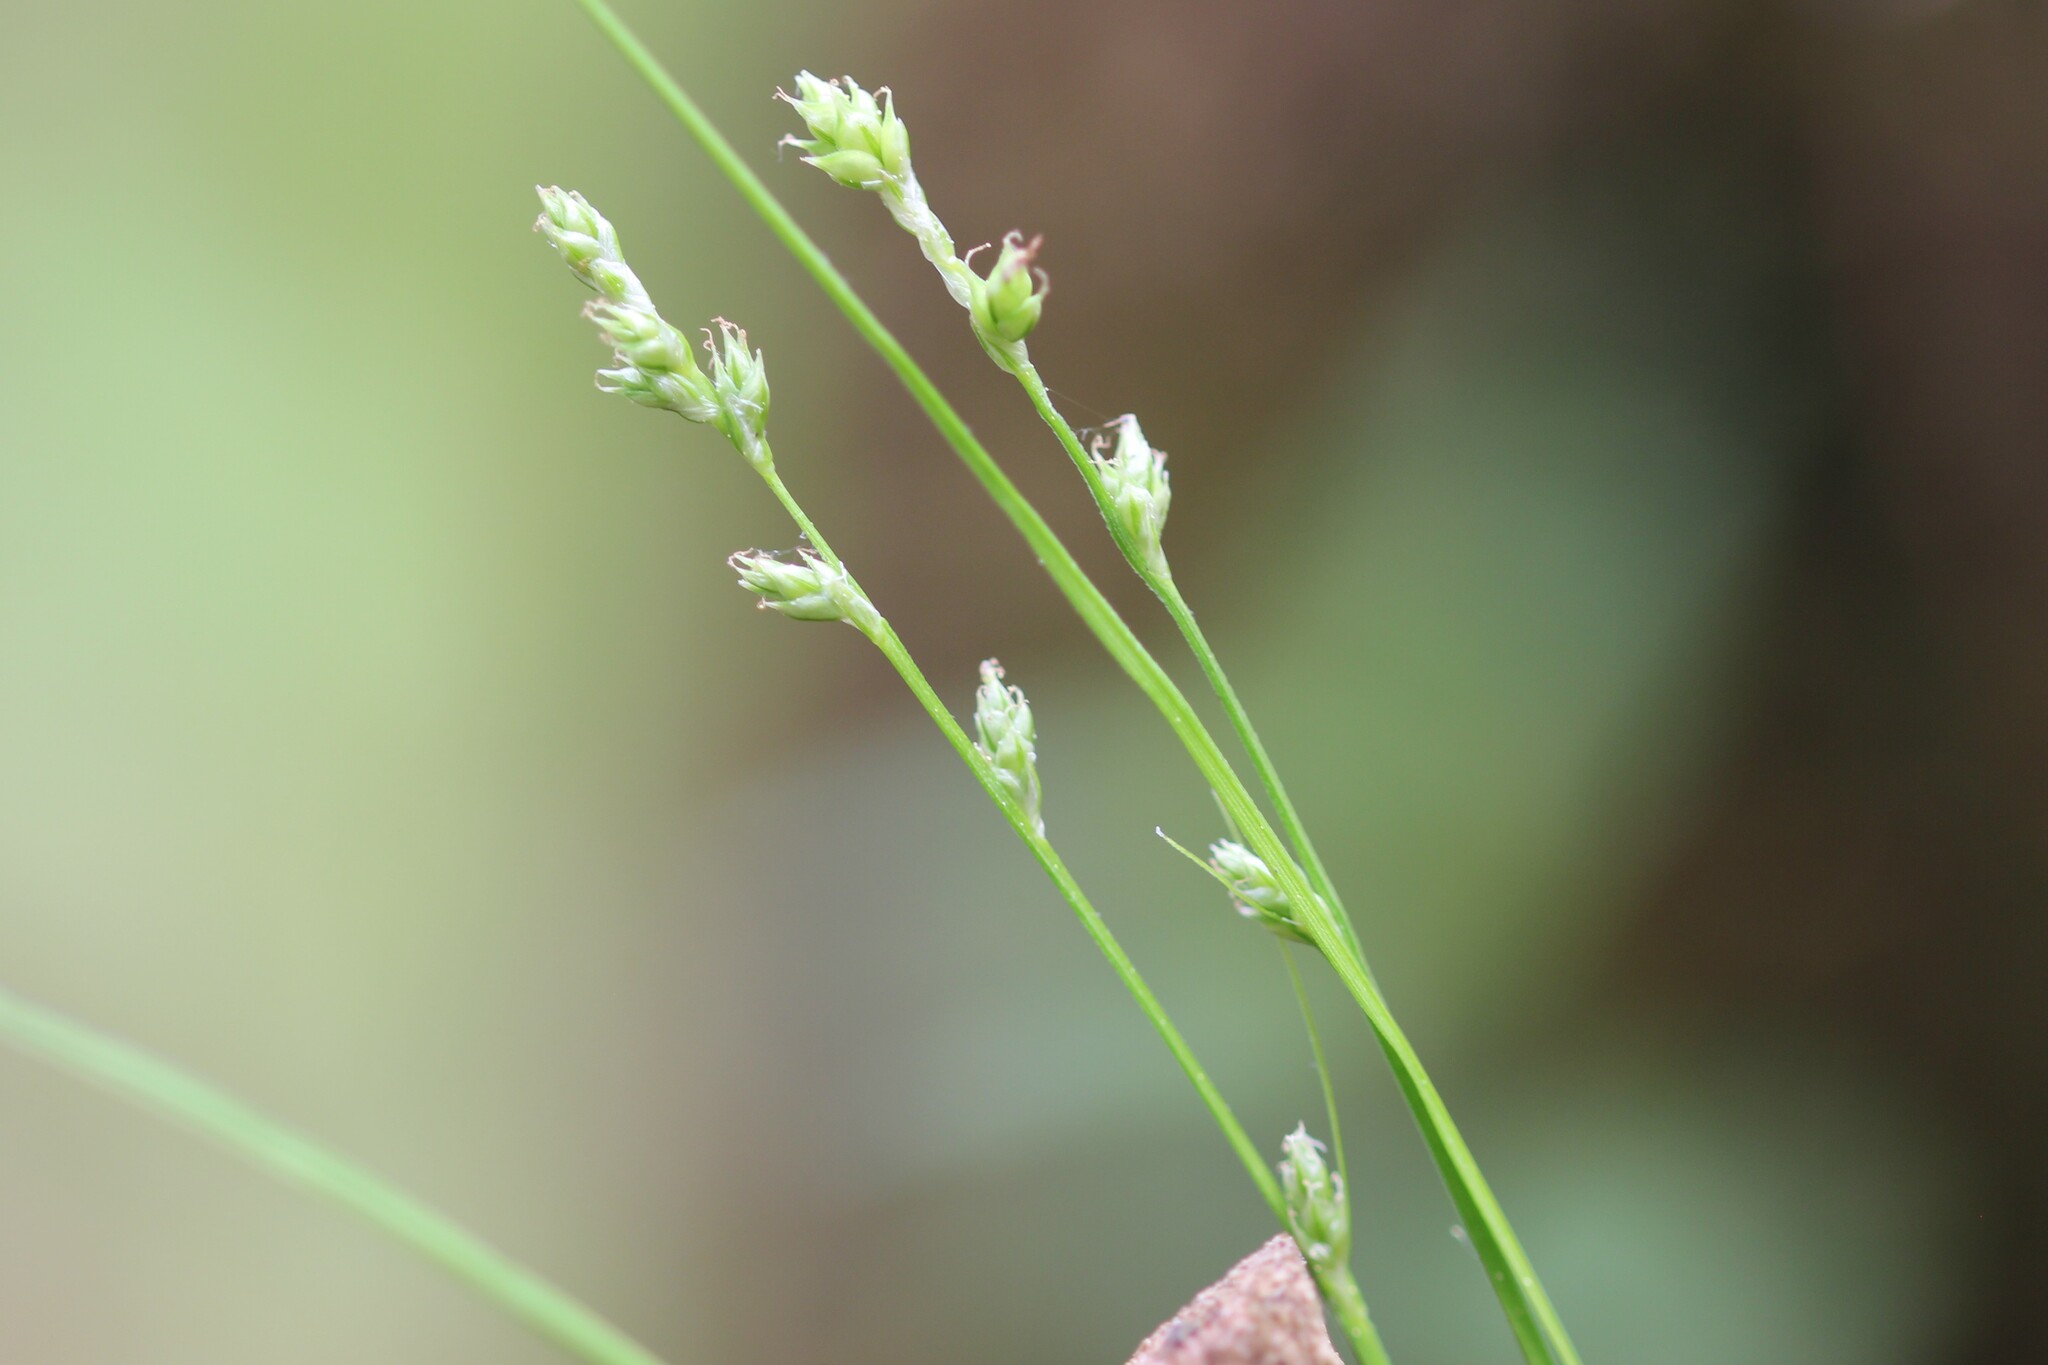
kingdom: Plantae
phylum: Tracheophyta
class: Liliopsida
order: Poales
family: Cyperaceae
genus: Carex
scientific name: Carex brunnescens
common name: Brown sedge
